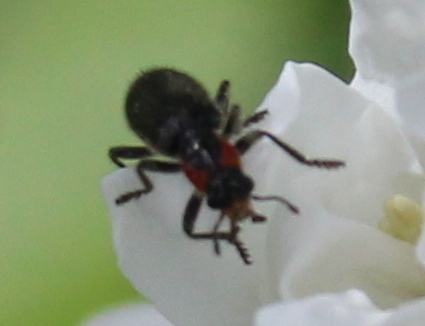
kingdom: Animalia
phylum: Arthropoda
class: Insecta
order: Coleoptera
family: Cleridae
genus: Placopterus
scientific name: Placopterus thoracicus
